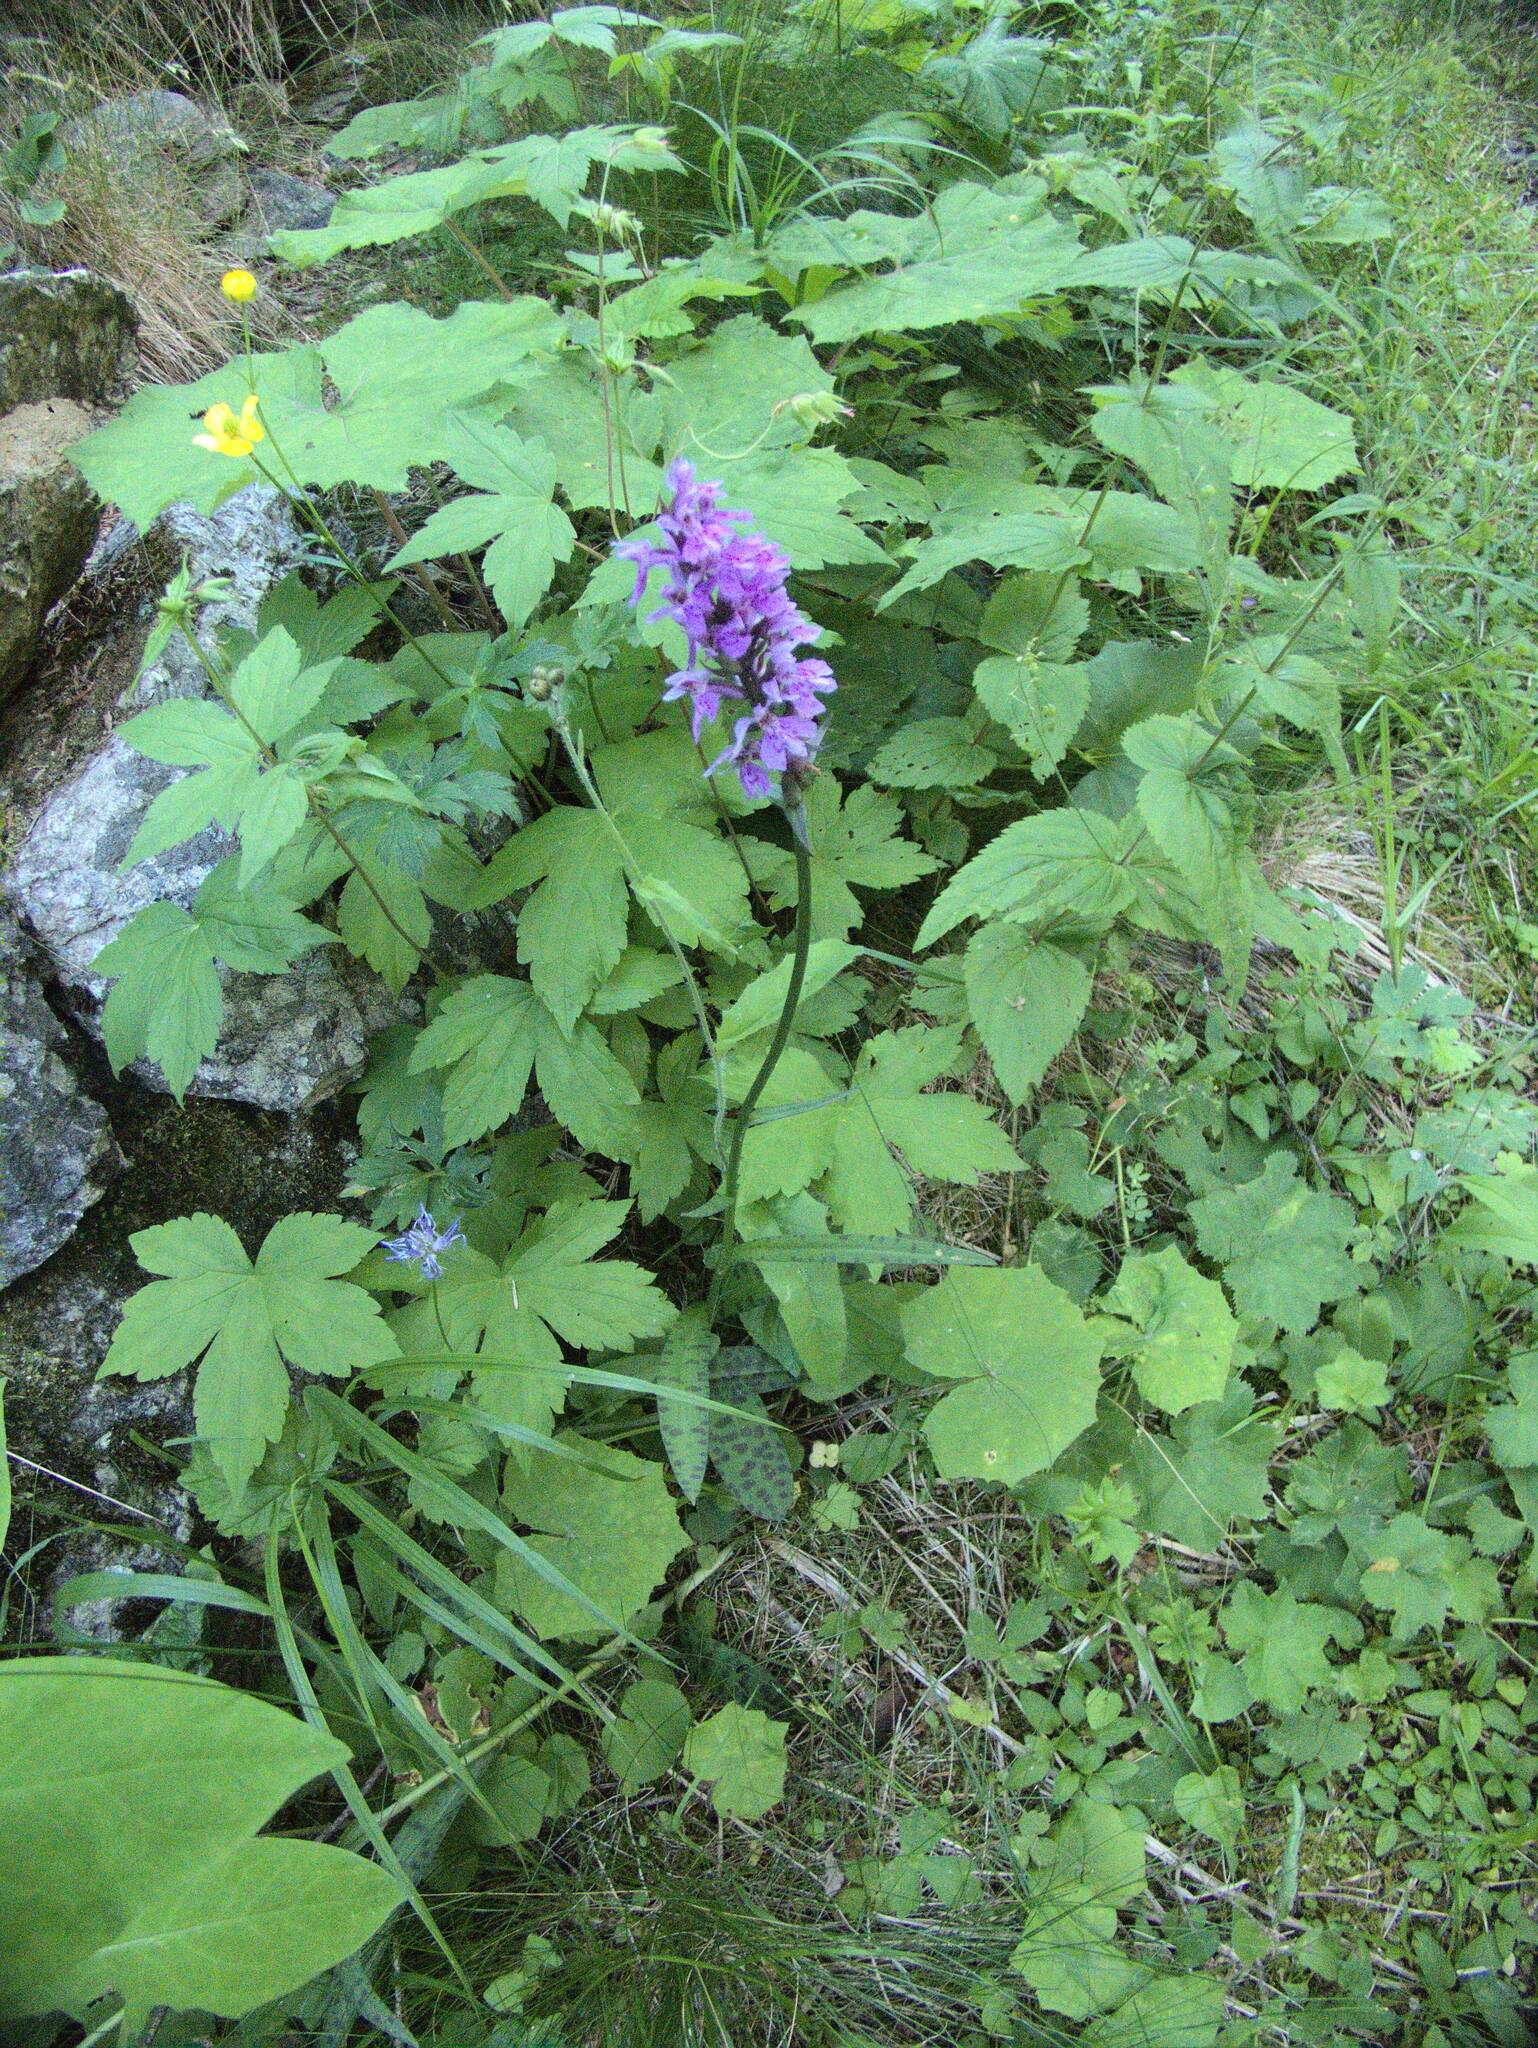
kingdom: Plantae
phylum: Tracheophyta
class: Liliopsida
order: Asparagales
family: Orchidaceae
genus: Dactylorhiza
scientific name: Dactylorhiza maculata
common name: Heath spotted-orchid
